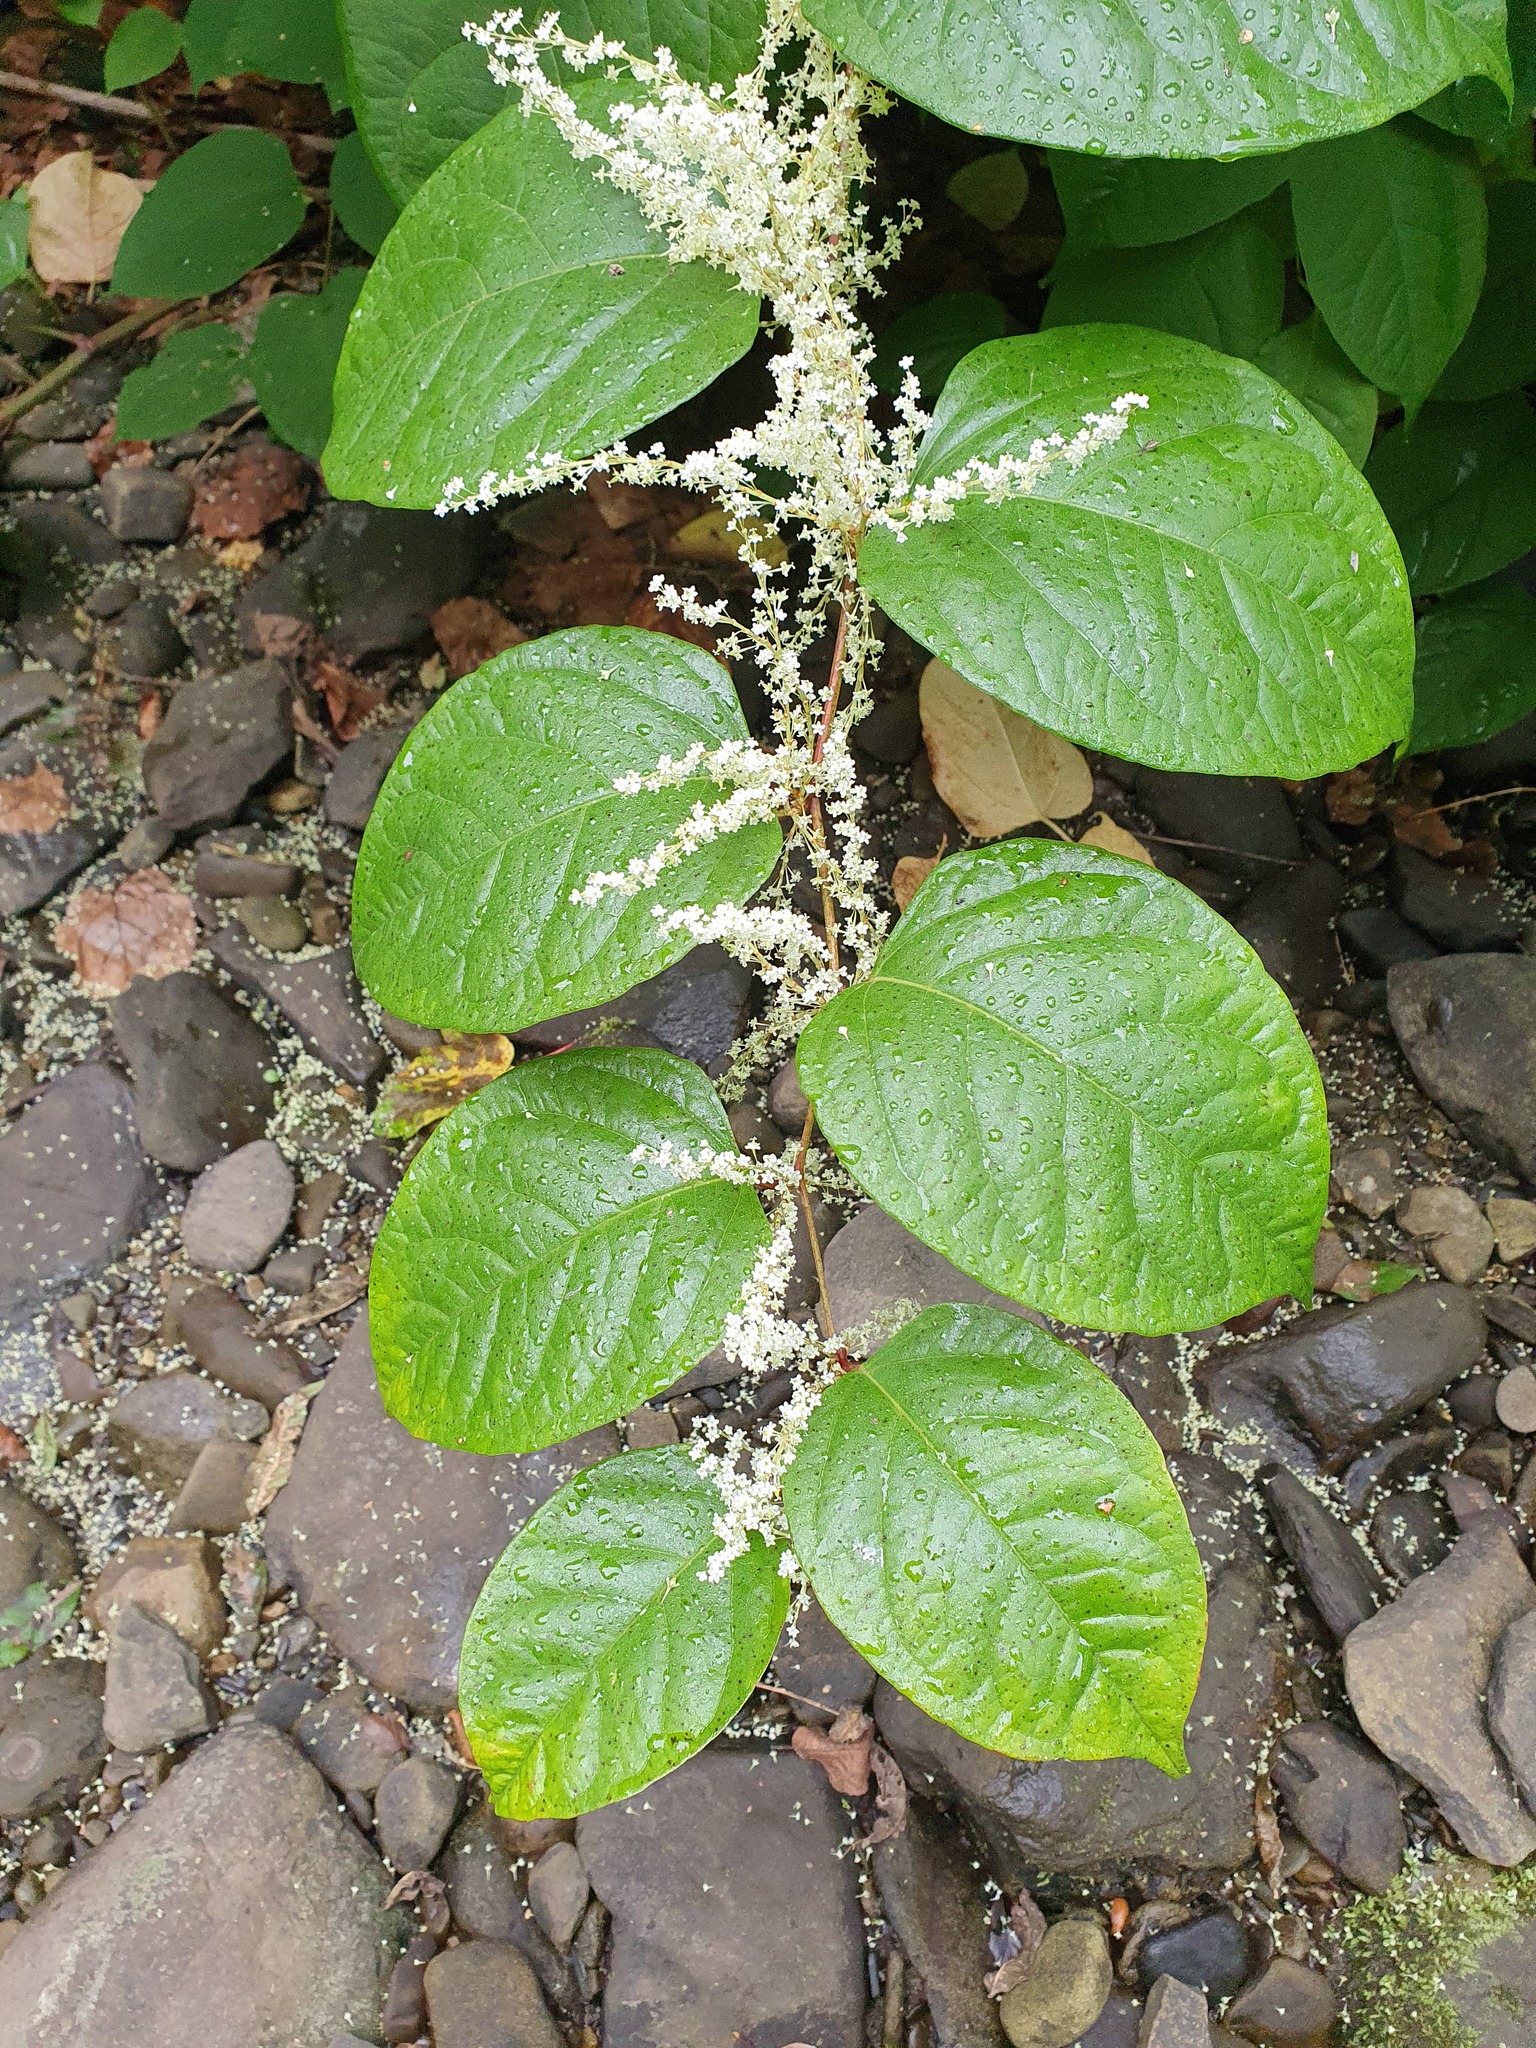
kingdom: Plantae
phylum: Tracheophyta
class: Magnoliopsida
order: Caryophyllales
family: Polygonaceae
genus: Reynoutria
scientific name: Reynoutria japonica
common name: Japanese knotweed
